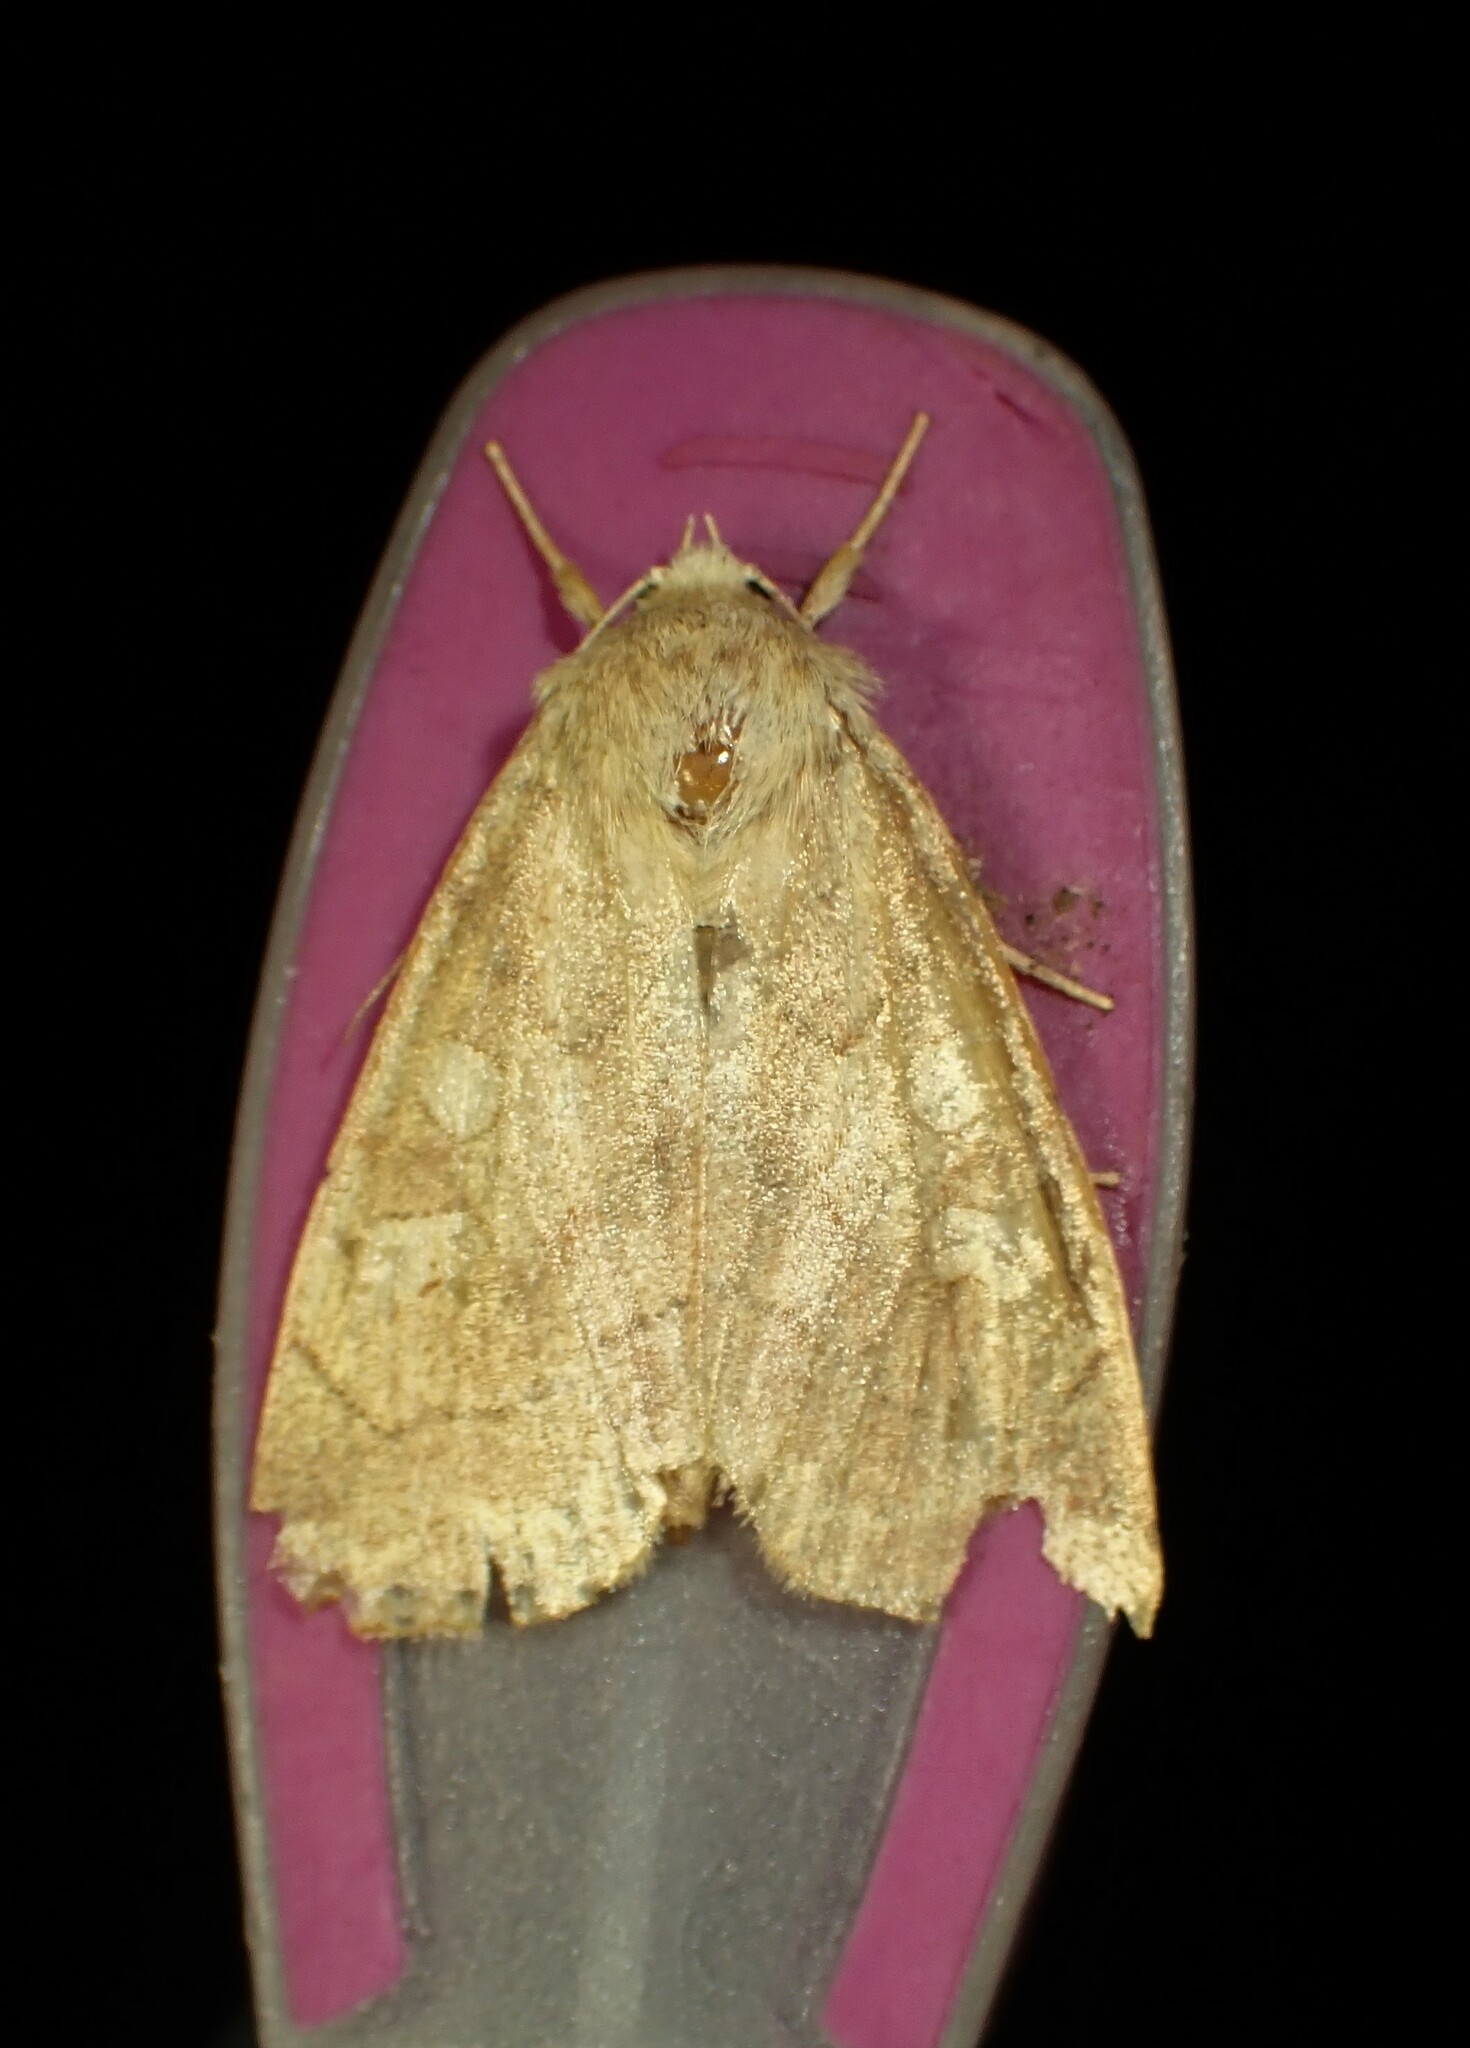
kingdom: Animalia
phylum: Arthropoda
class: Insecta
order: Lepidoptera
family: Noctuidae
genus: Enargia
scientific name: Enargia decolor
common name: Aspen twoleaf tier moth
